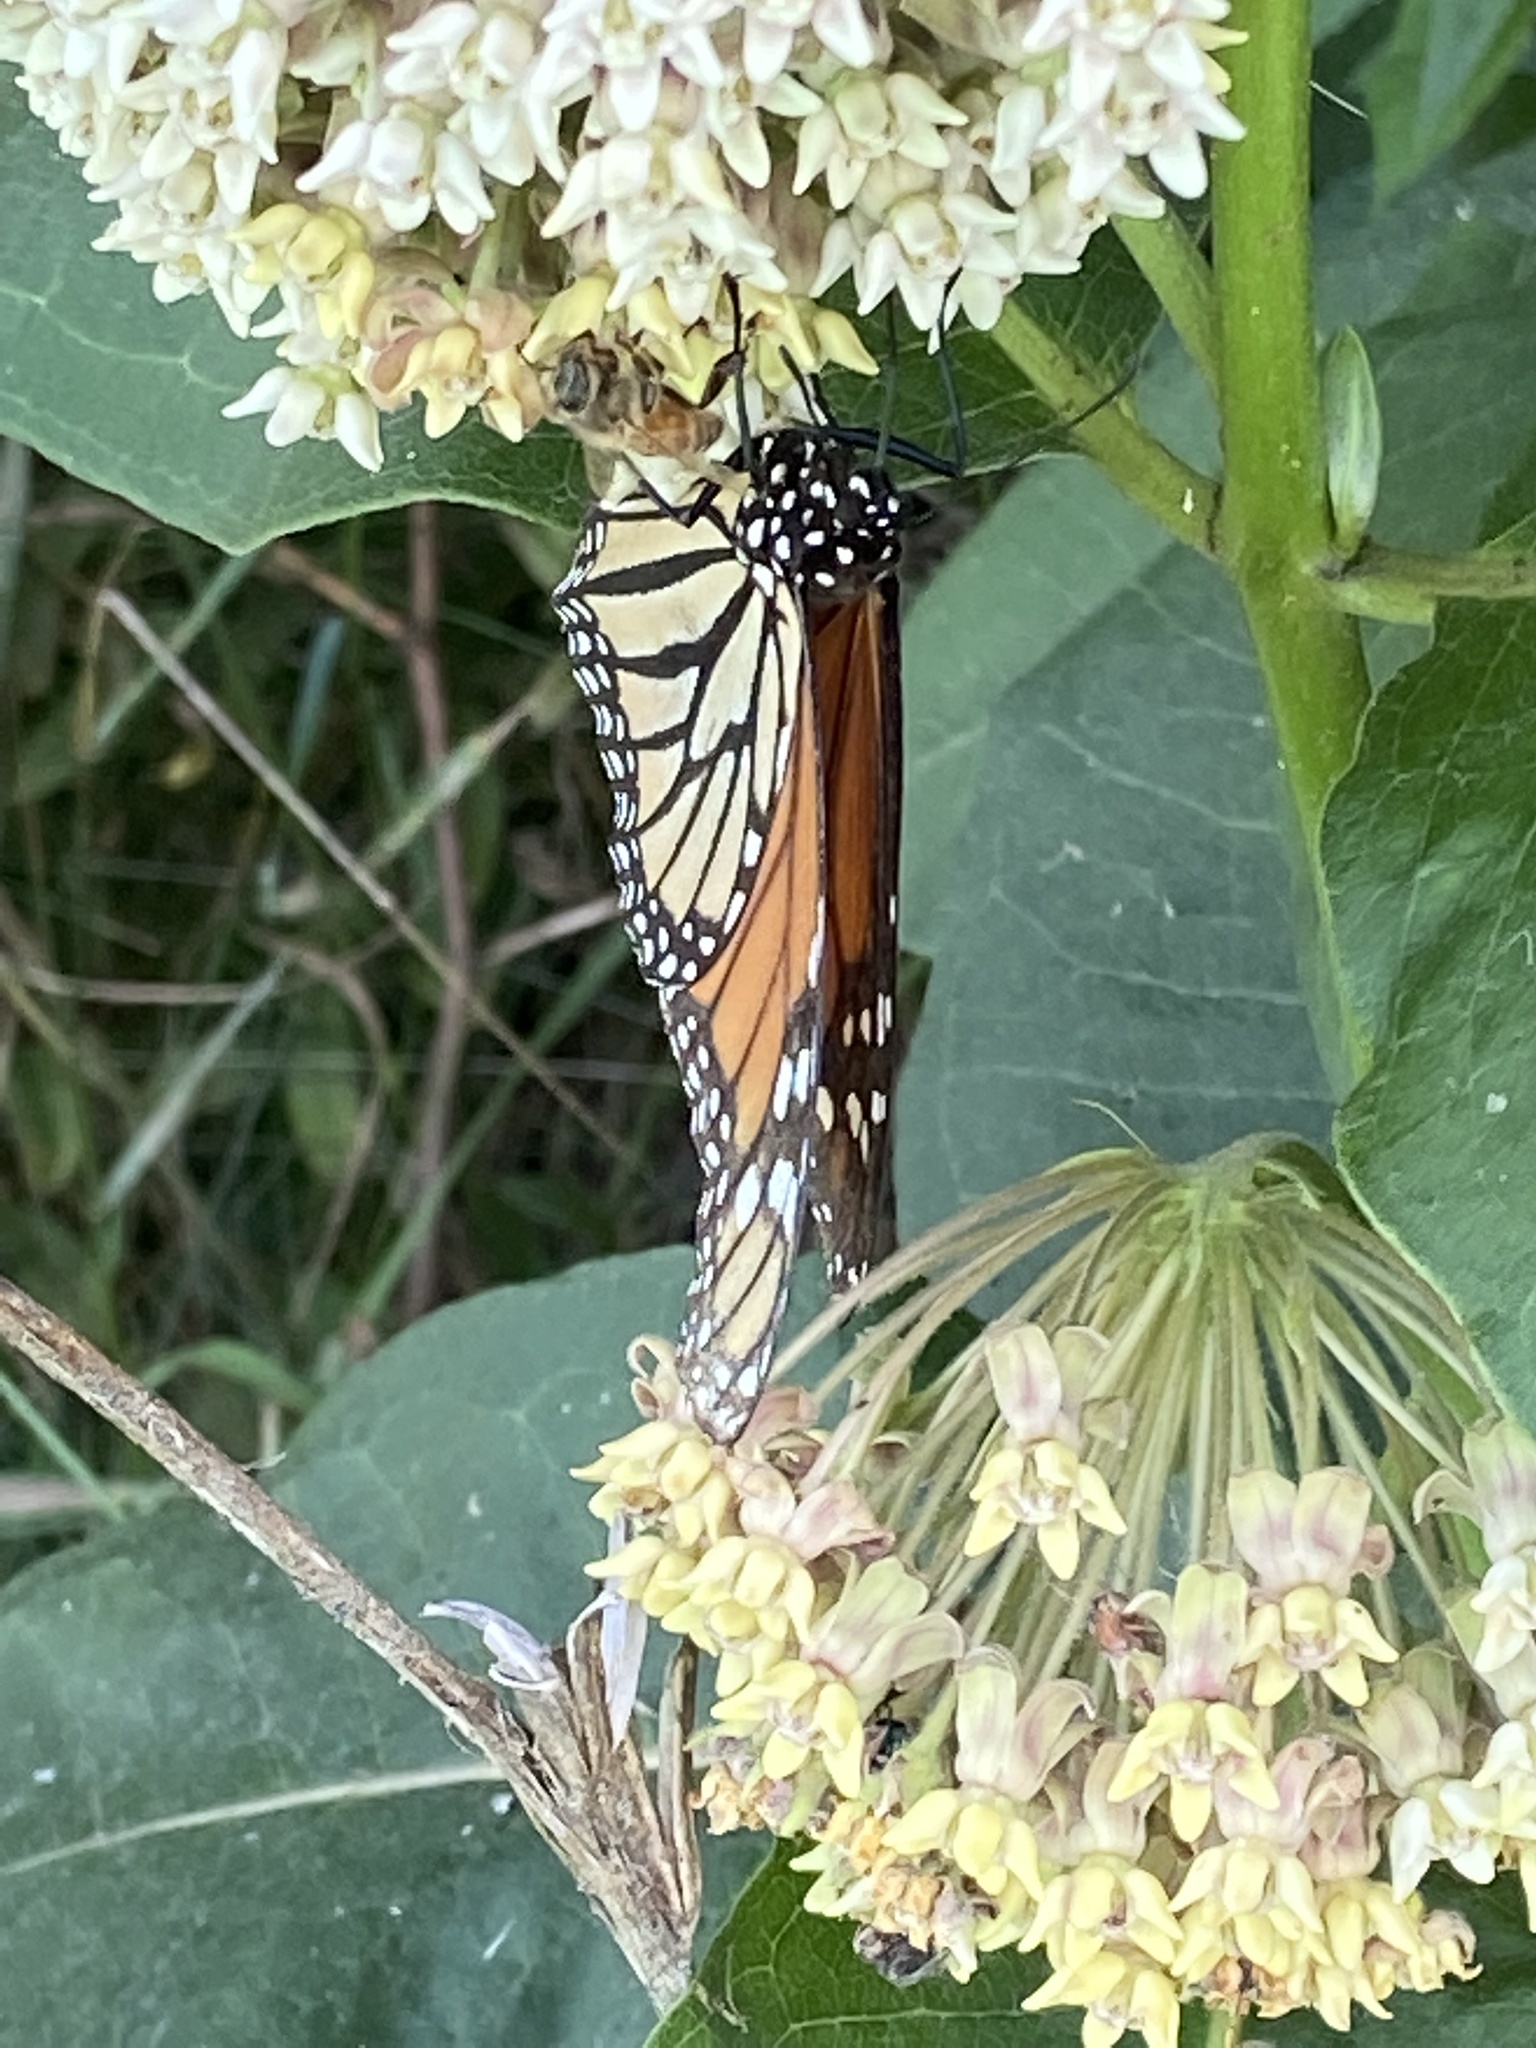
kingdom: Animalia
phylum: Arthropoda
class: Insecta
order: Lepidoptera
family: Nymphalidae
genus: Danaus
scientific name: Danaus plexippus
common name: Monarch
